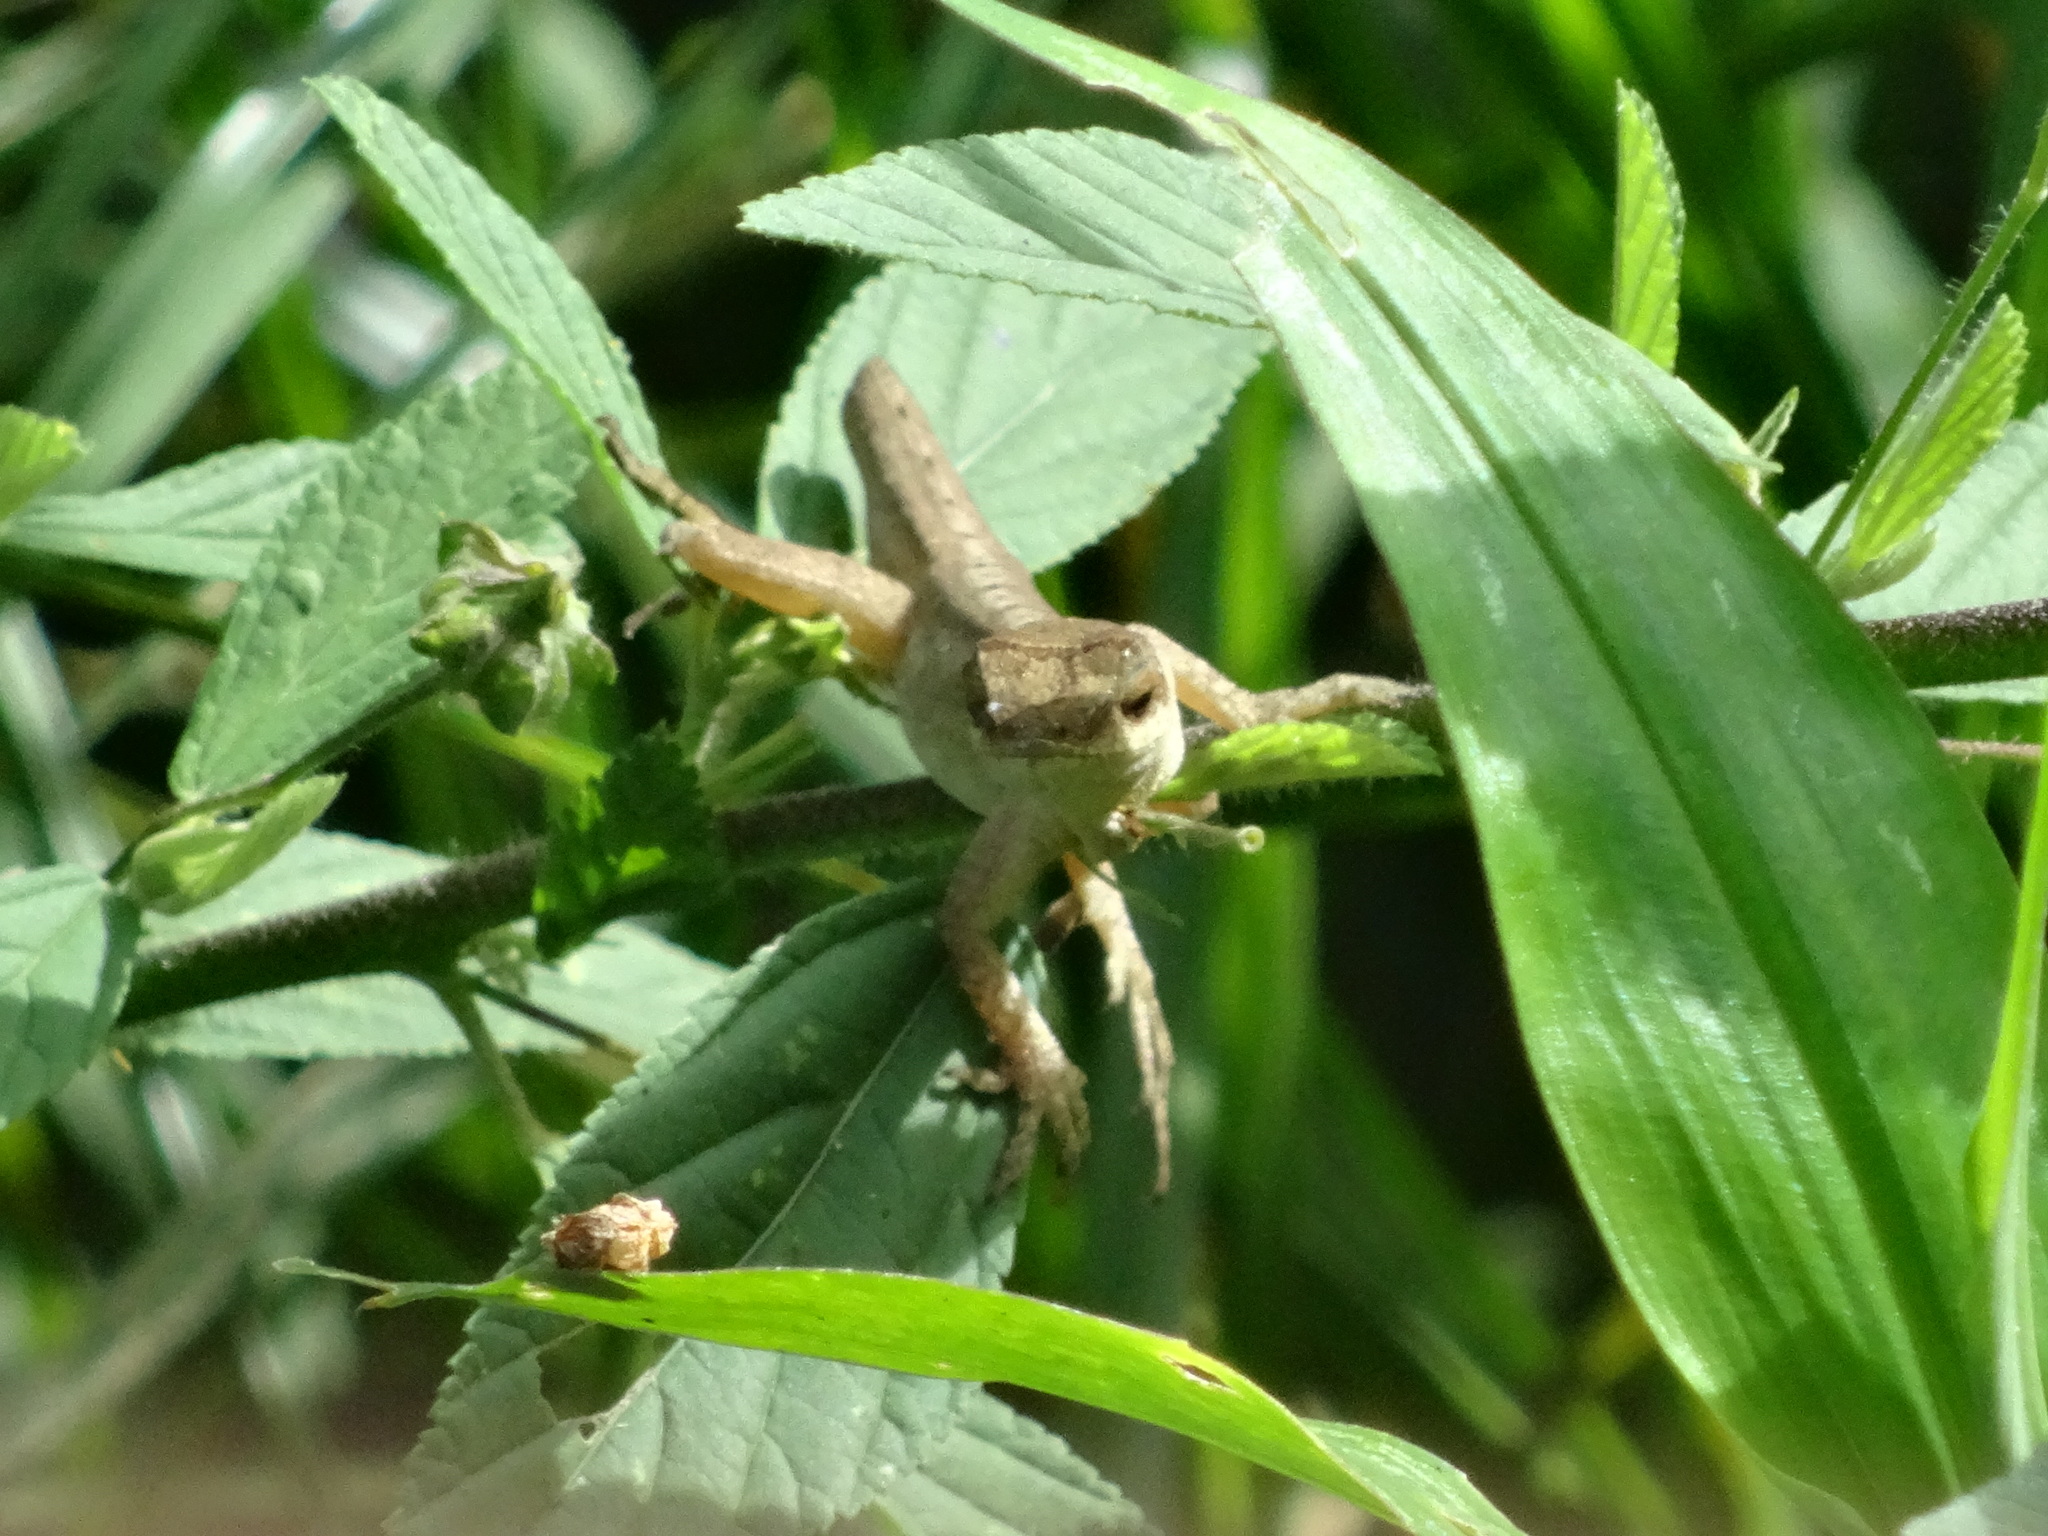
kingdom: Animalia
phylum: Chordata
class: Squamata
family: Dactyloidae
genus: Anolis
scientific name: Anolis mariarum
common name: Blemished anole
